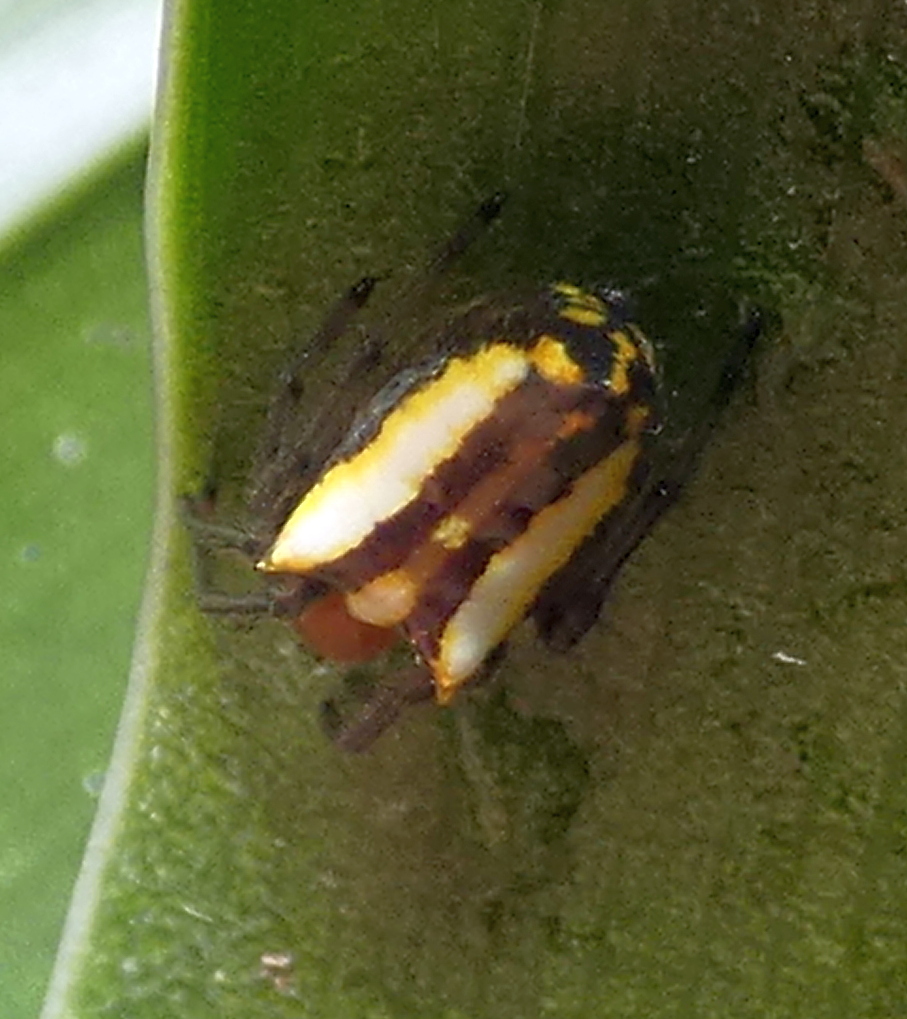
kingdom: Animalia
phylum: Arthropoda
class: Arachnida
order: Araneae
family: Araneidae
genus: Alpaida
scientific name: Alpaida bicornuta
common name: Orb weavers
